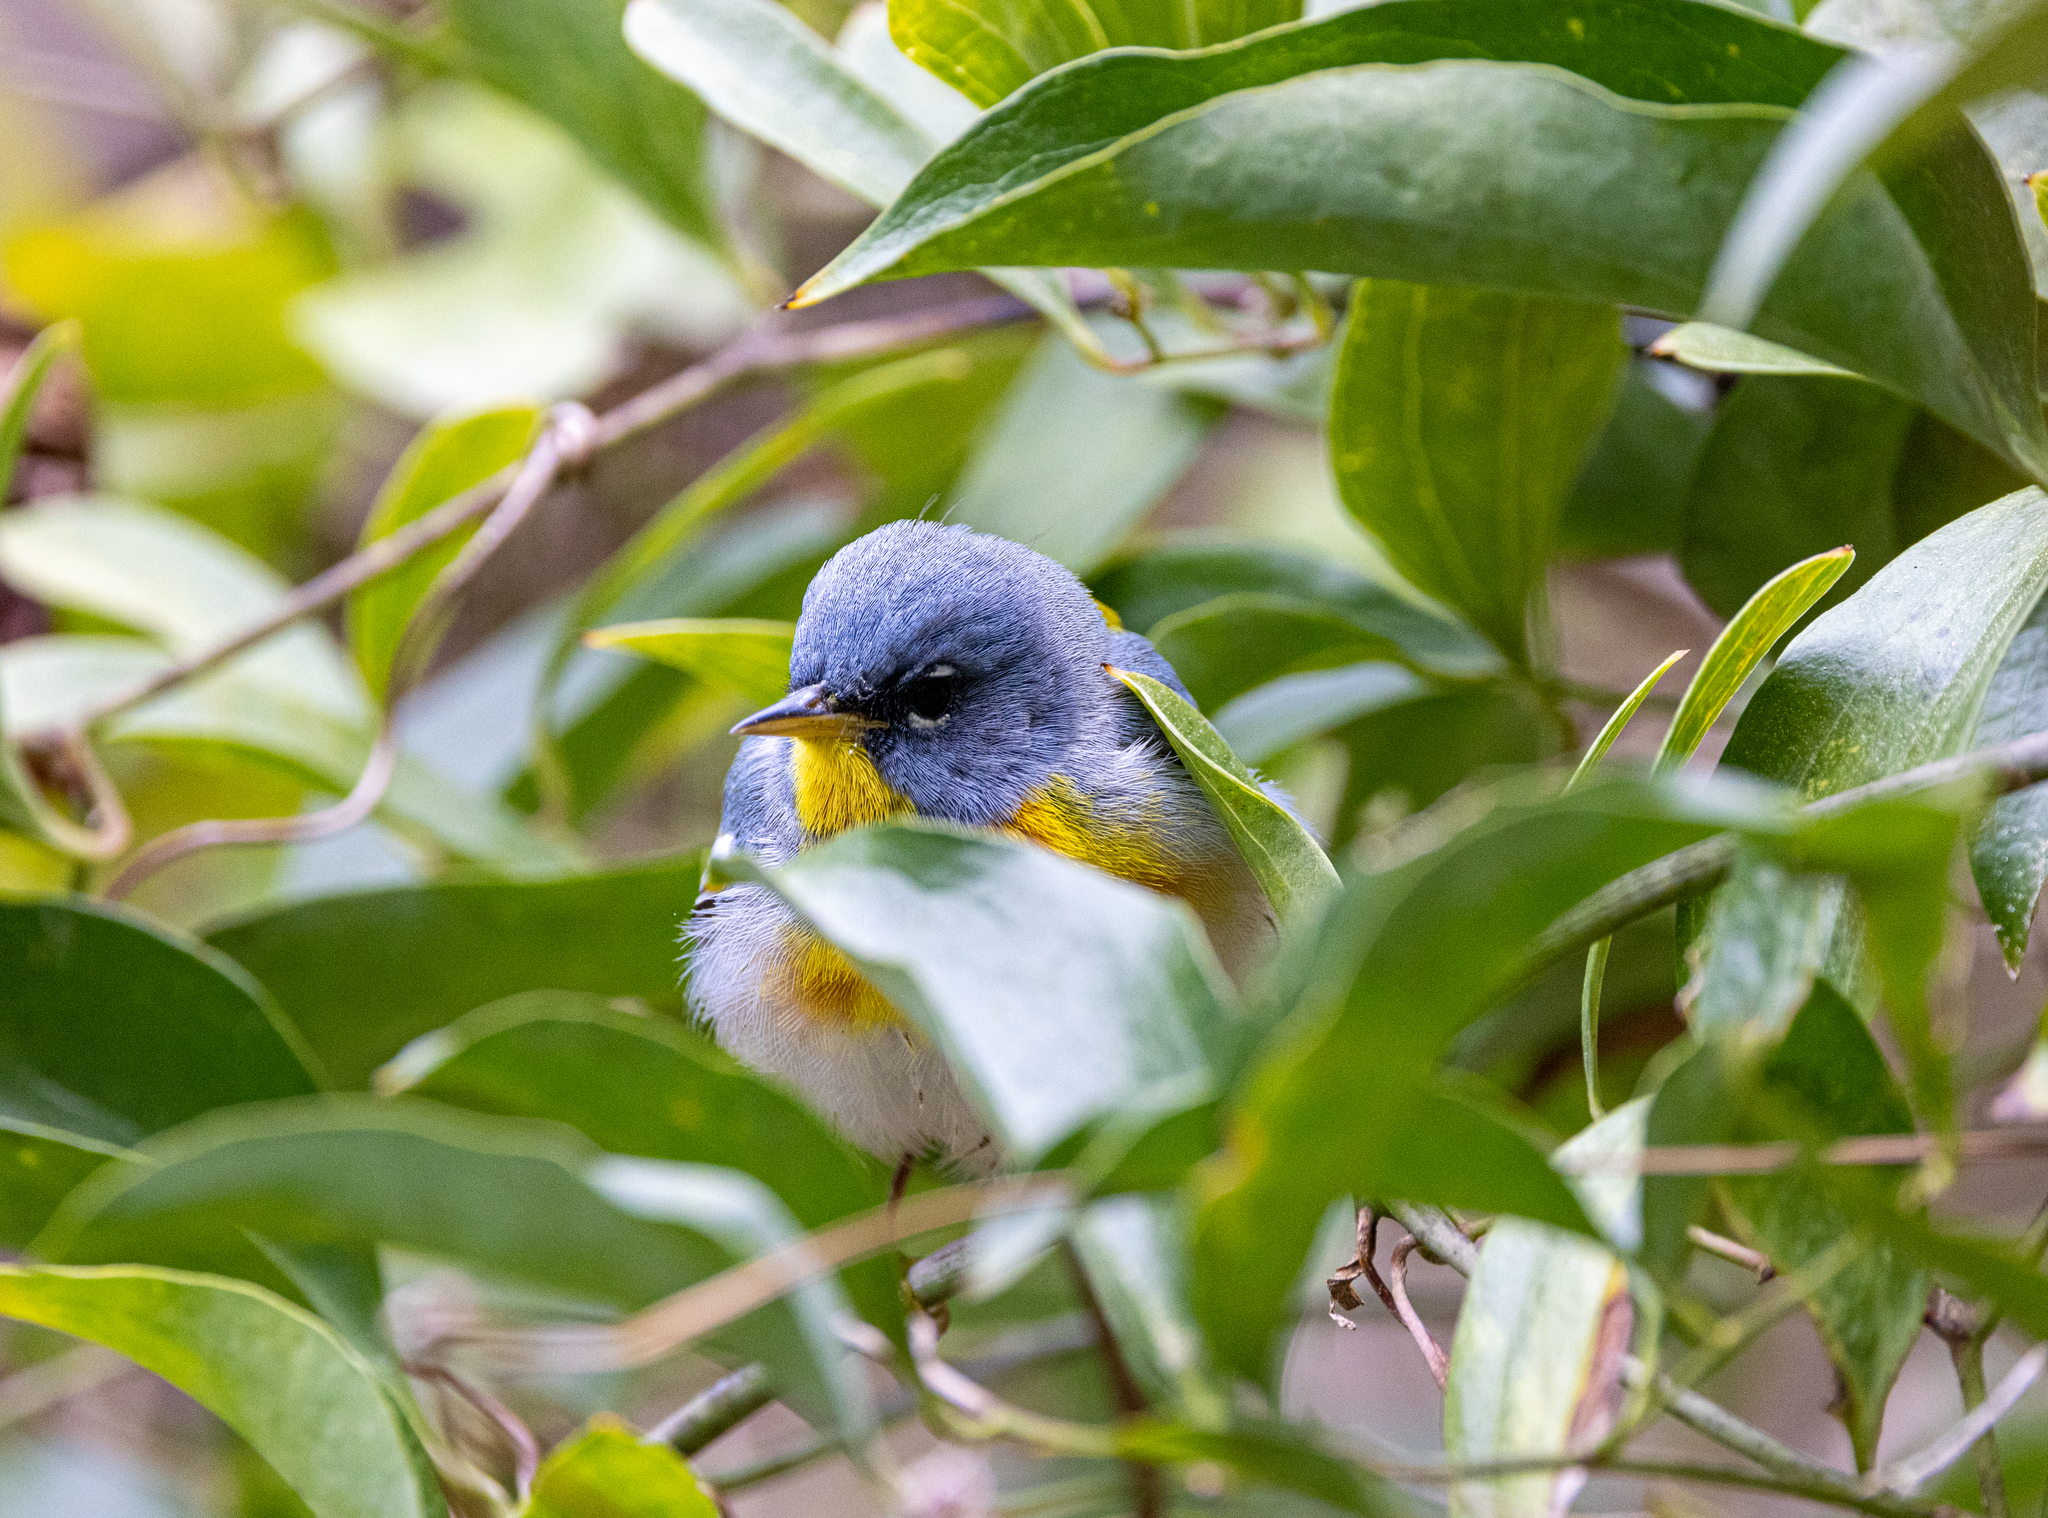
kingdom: Animalia
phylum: Chordata
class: Aves
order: Passeriformes
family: Parulidae
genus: Setophaga
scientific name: Setophaga americana
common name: Northern parula
